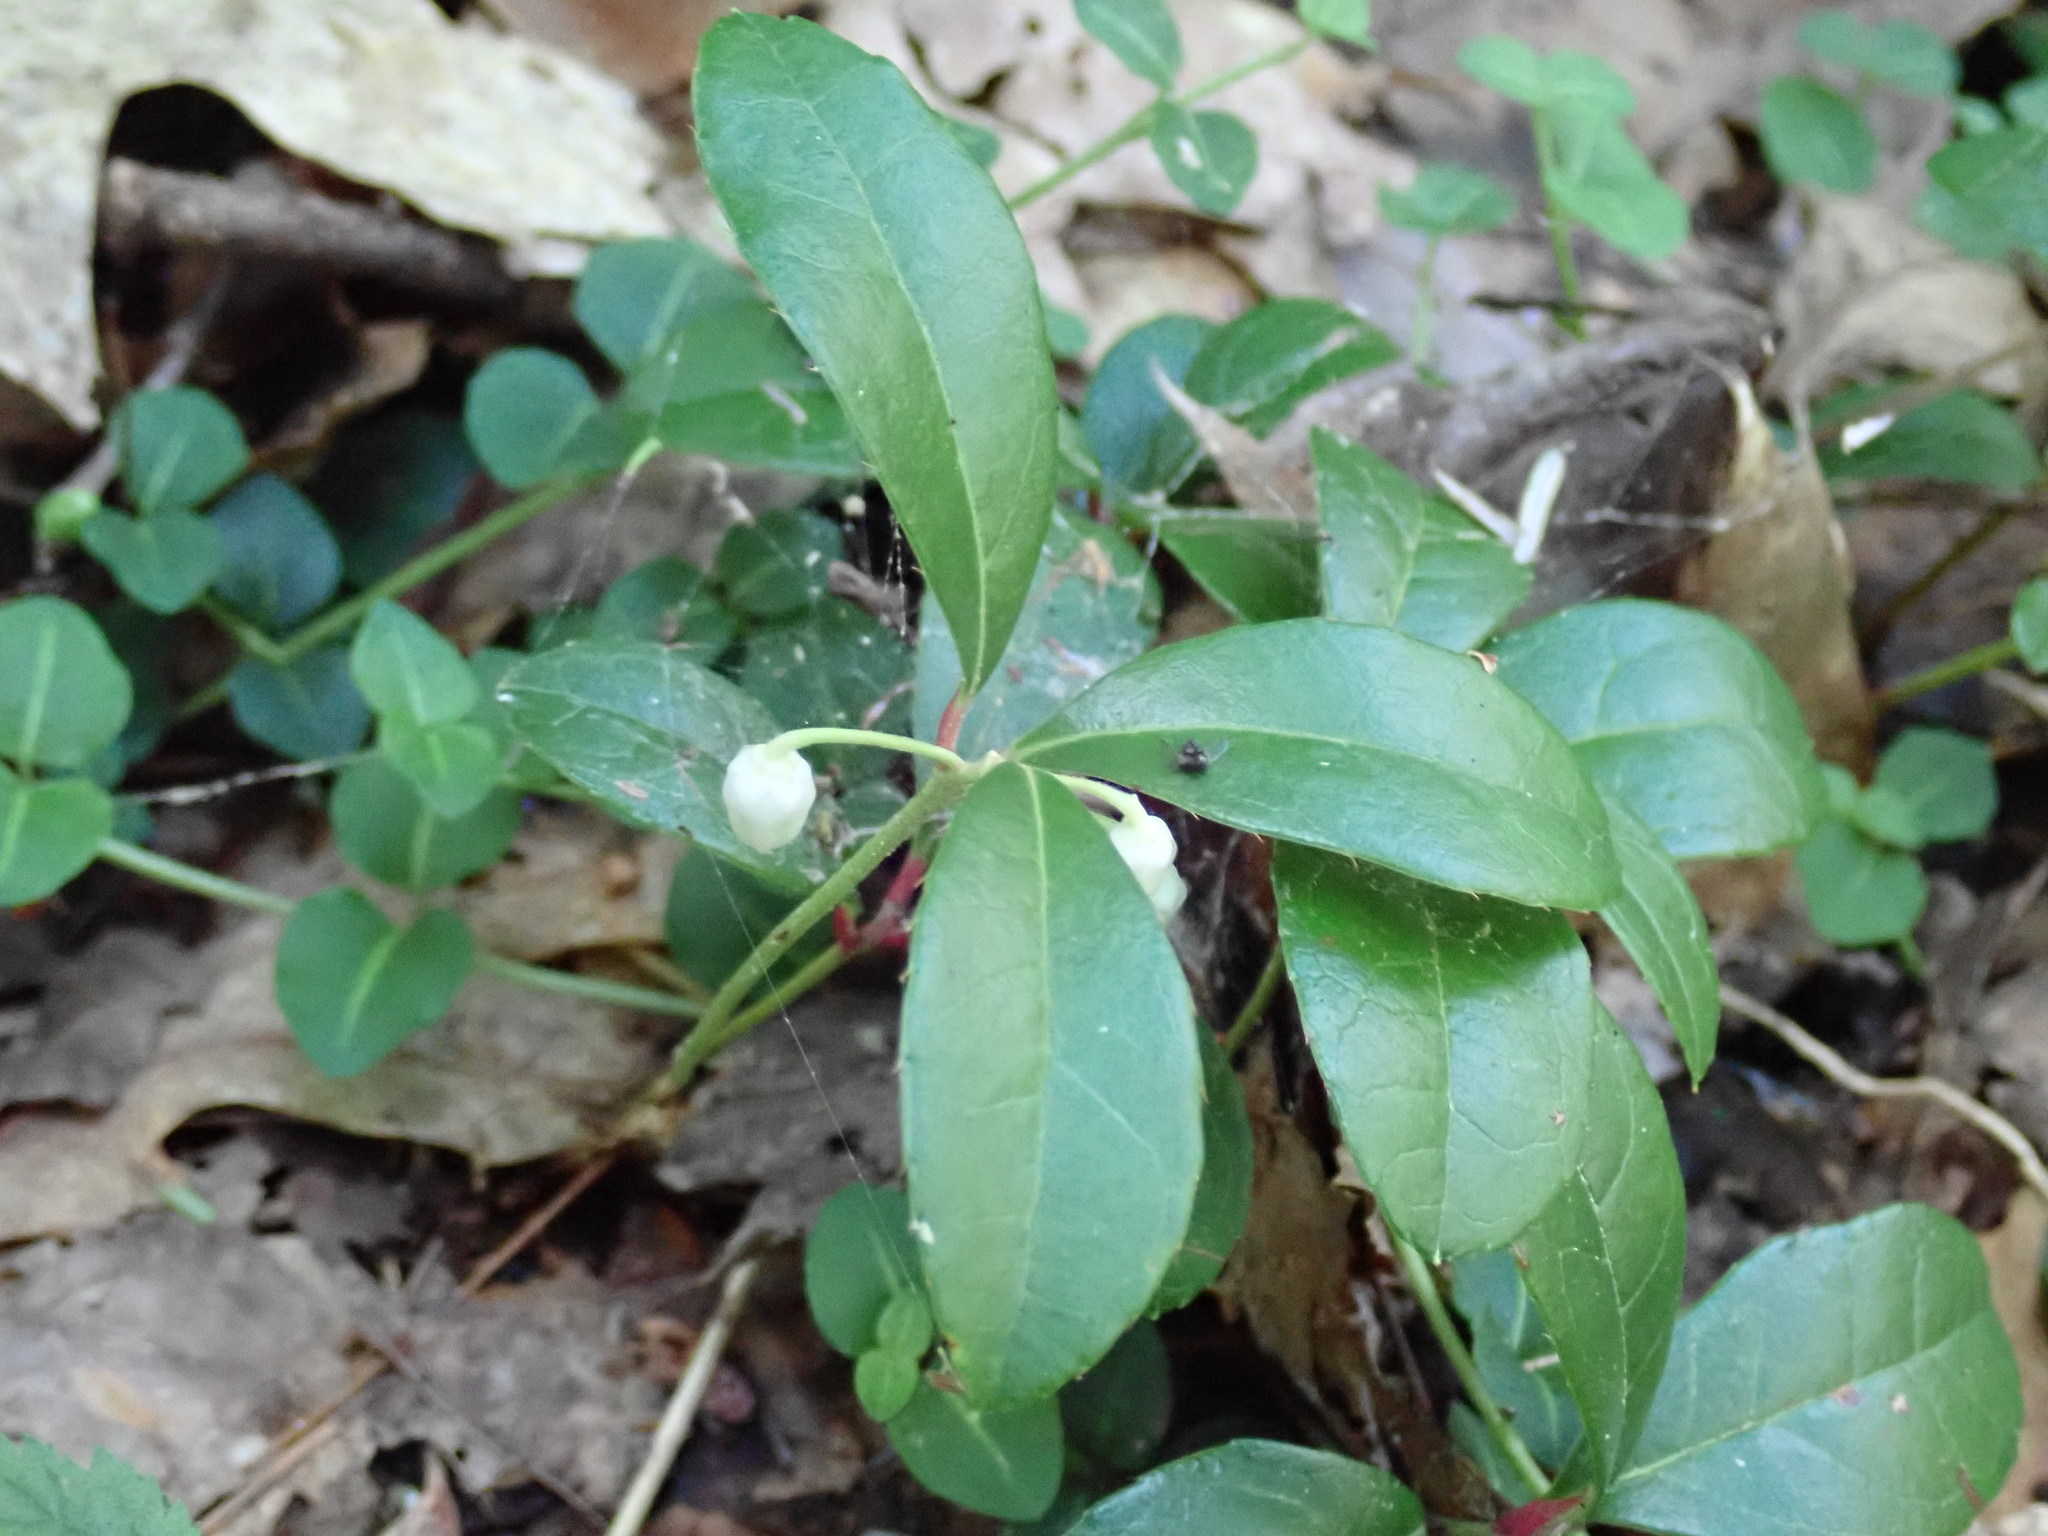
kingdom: Plantae
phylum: Tracheophyta
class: Magnoliopsida
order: Ericales
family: Ericaceae
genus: Gaultheria
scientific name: Gaultheria procumbens
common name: Checkerberry
